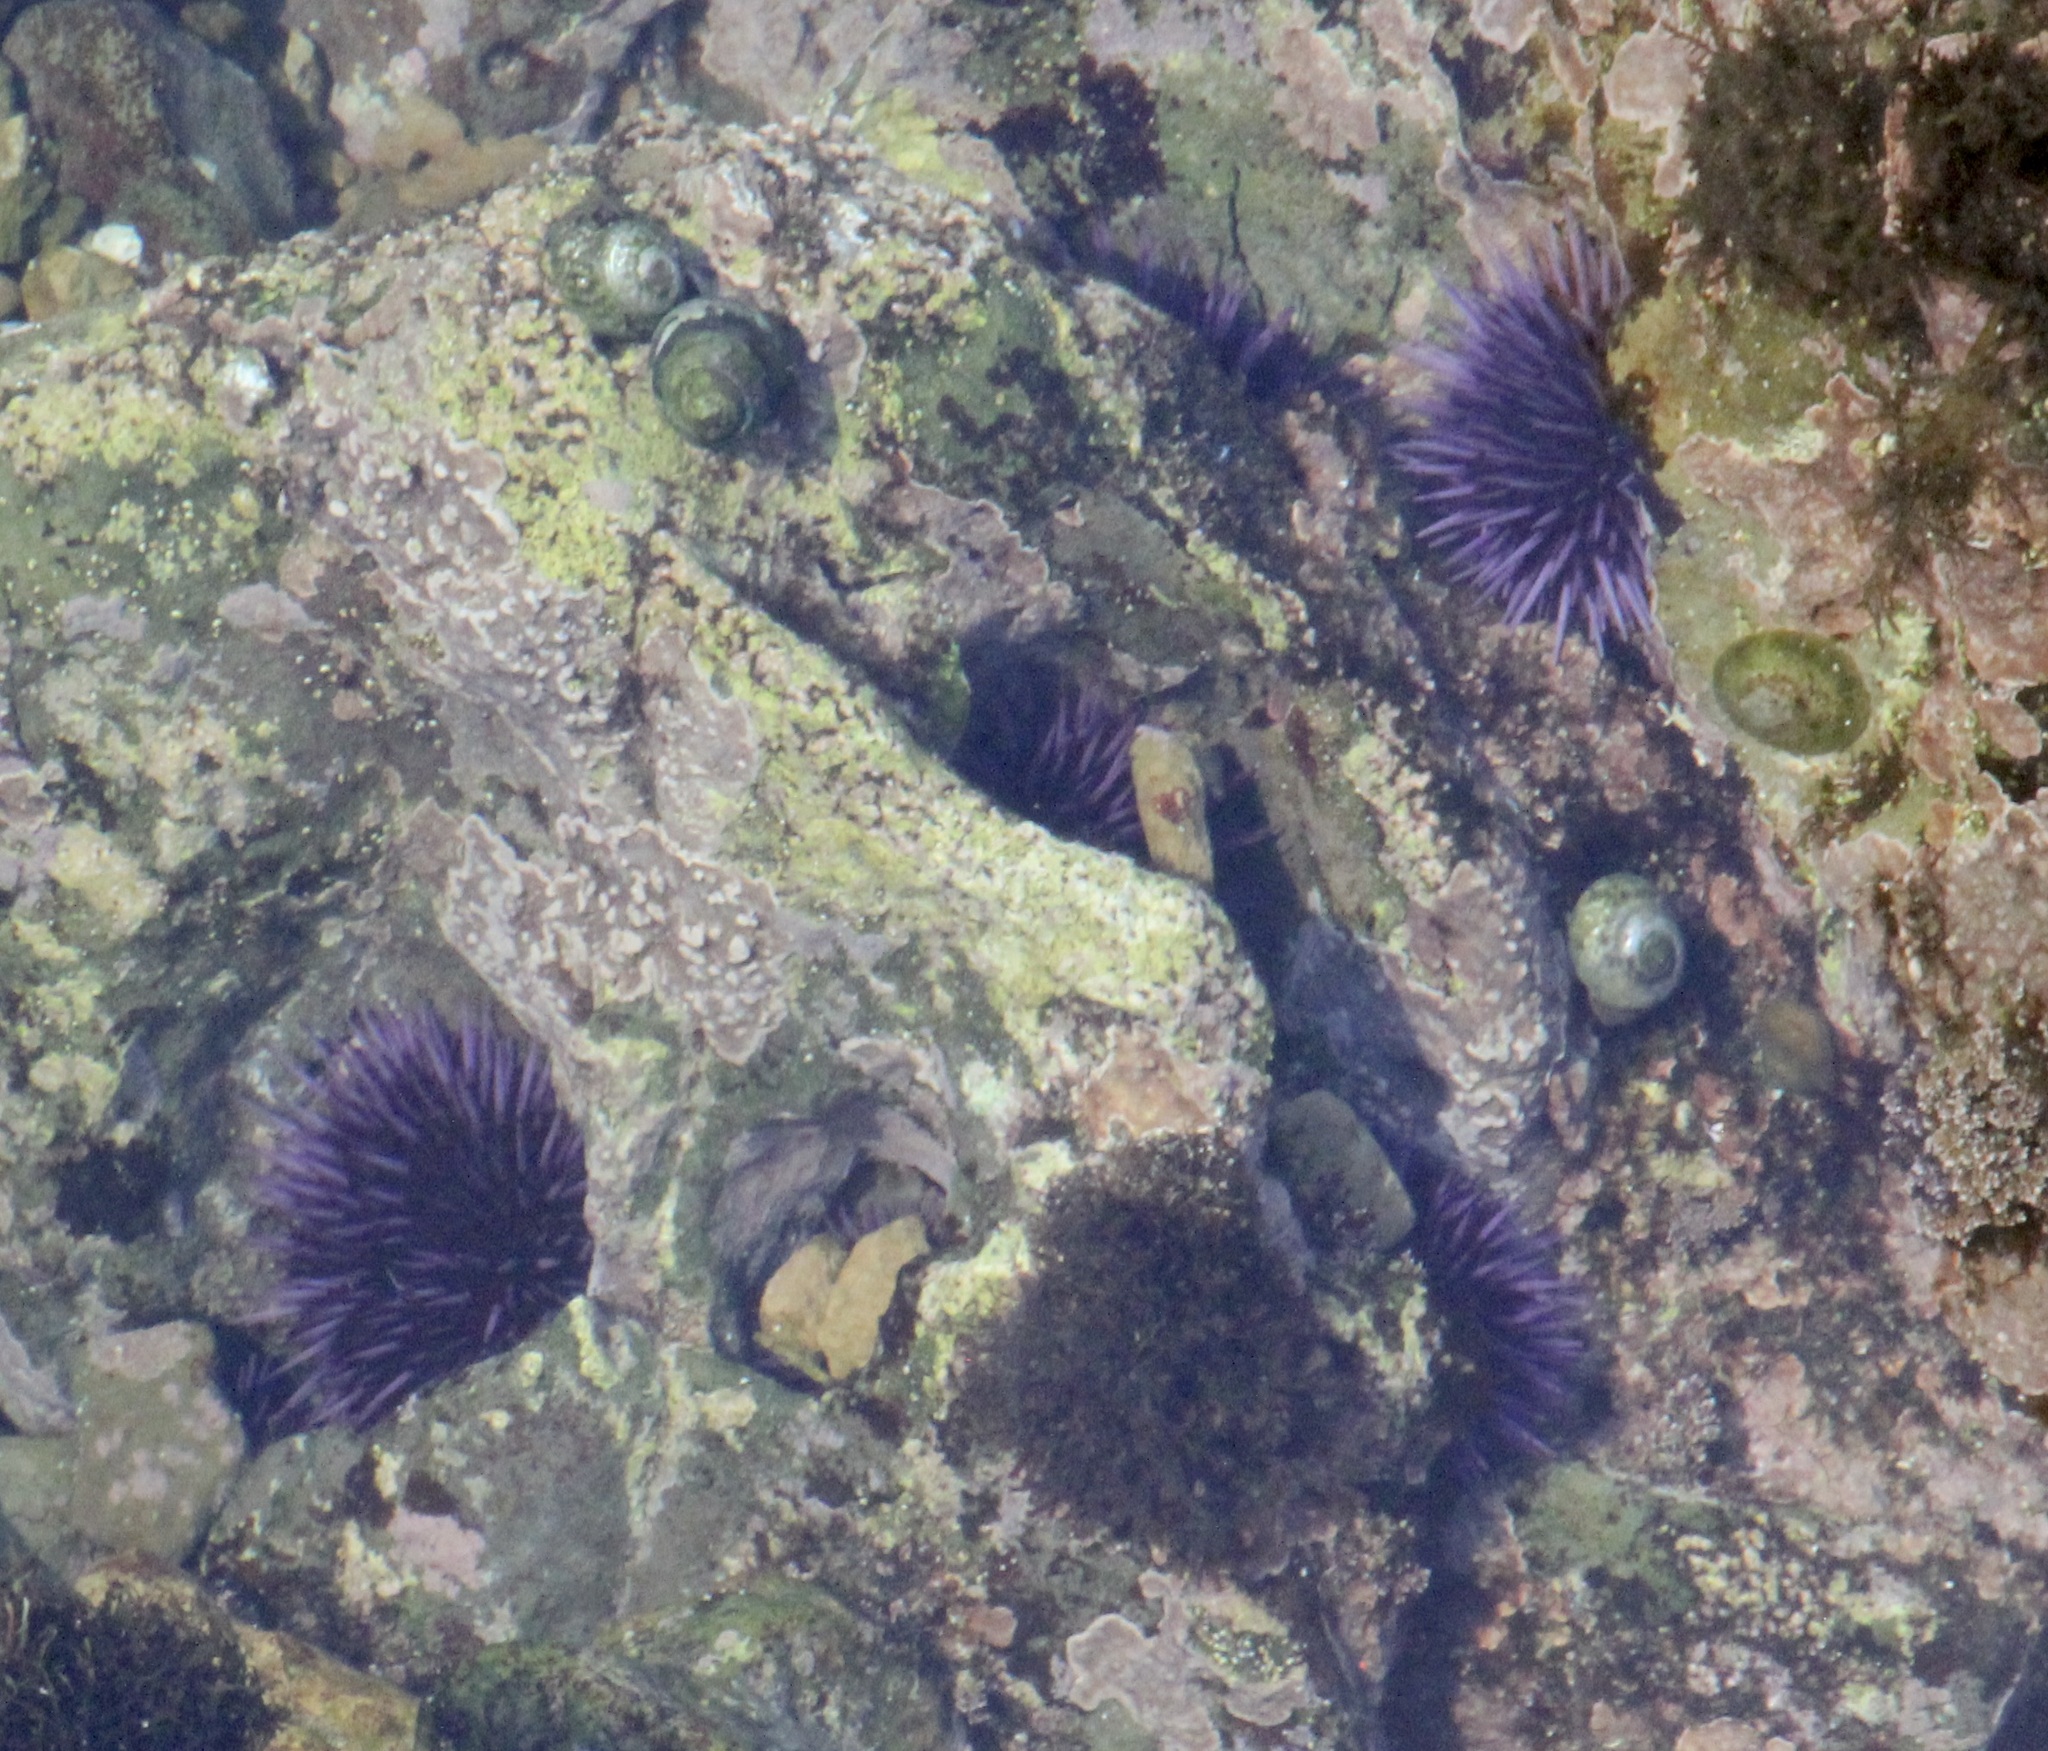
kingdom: Animalia
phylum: Echinodermata
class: Echinoidea
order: Camarodonta
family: Strongylocentrotidae
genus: Strongylocentrotus
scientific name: Strongylocentrotus purpuratus
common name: Purple sea urchin
